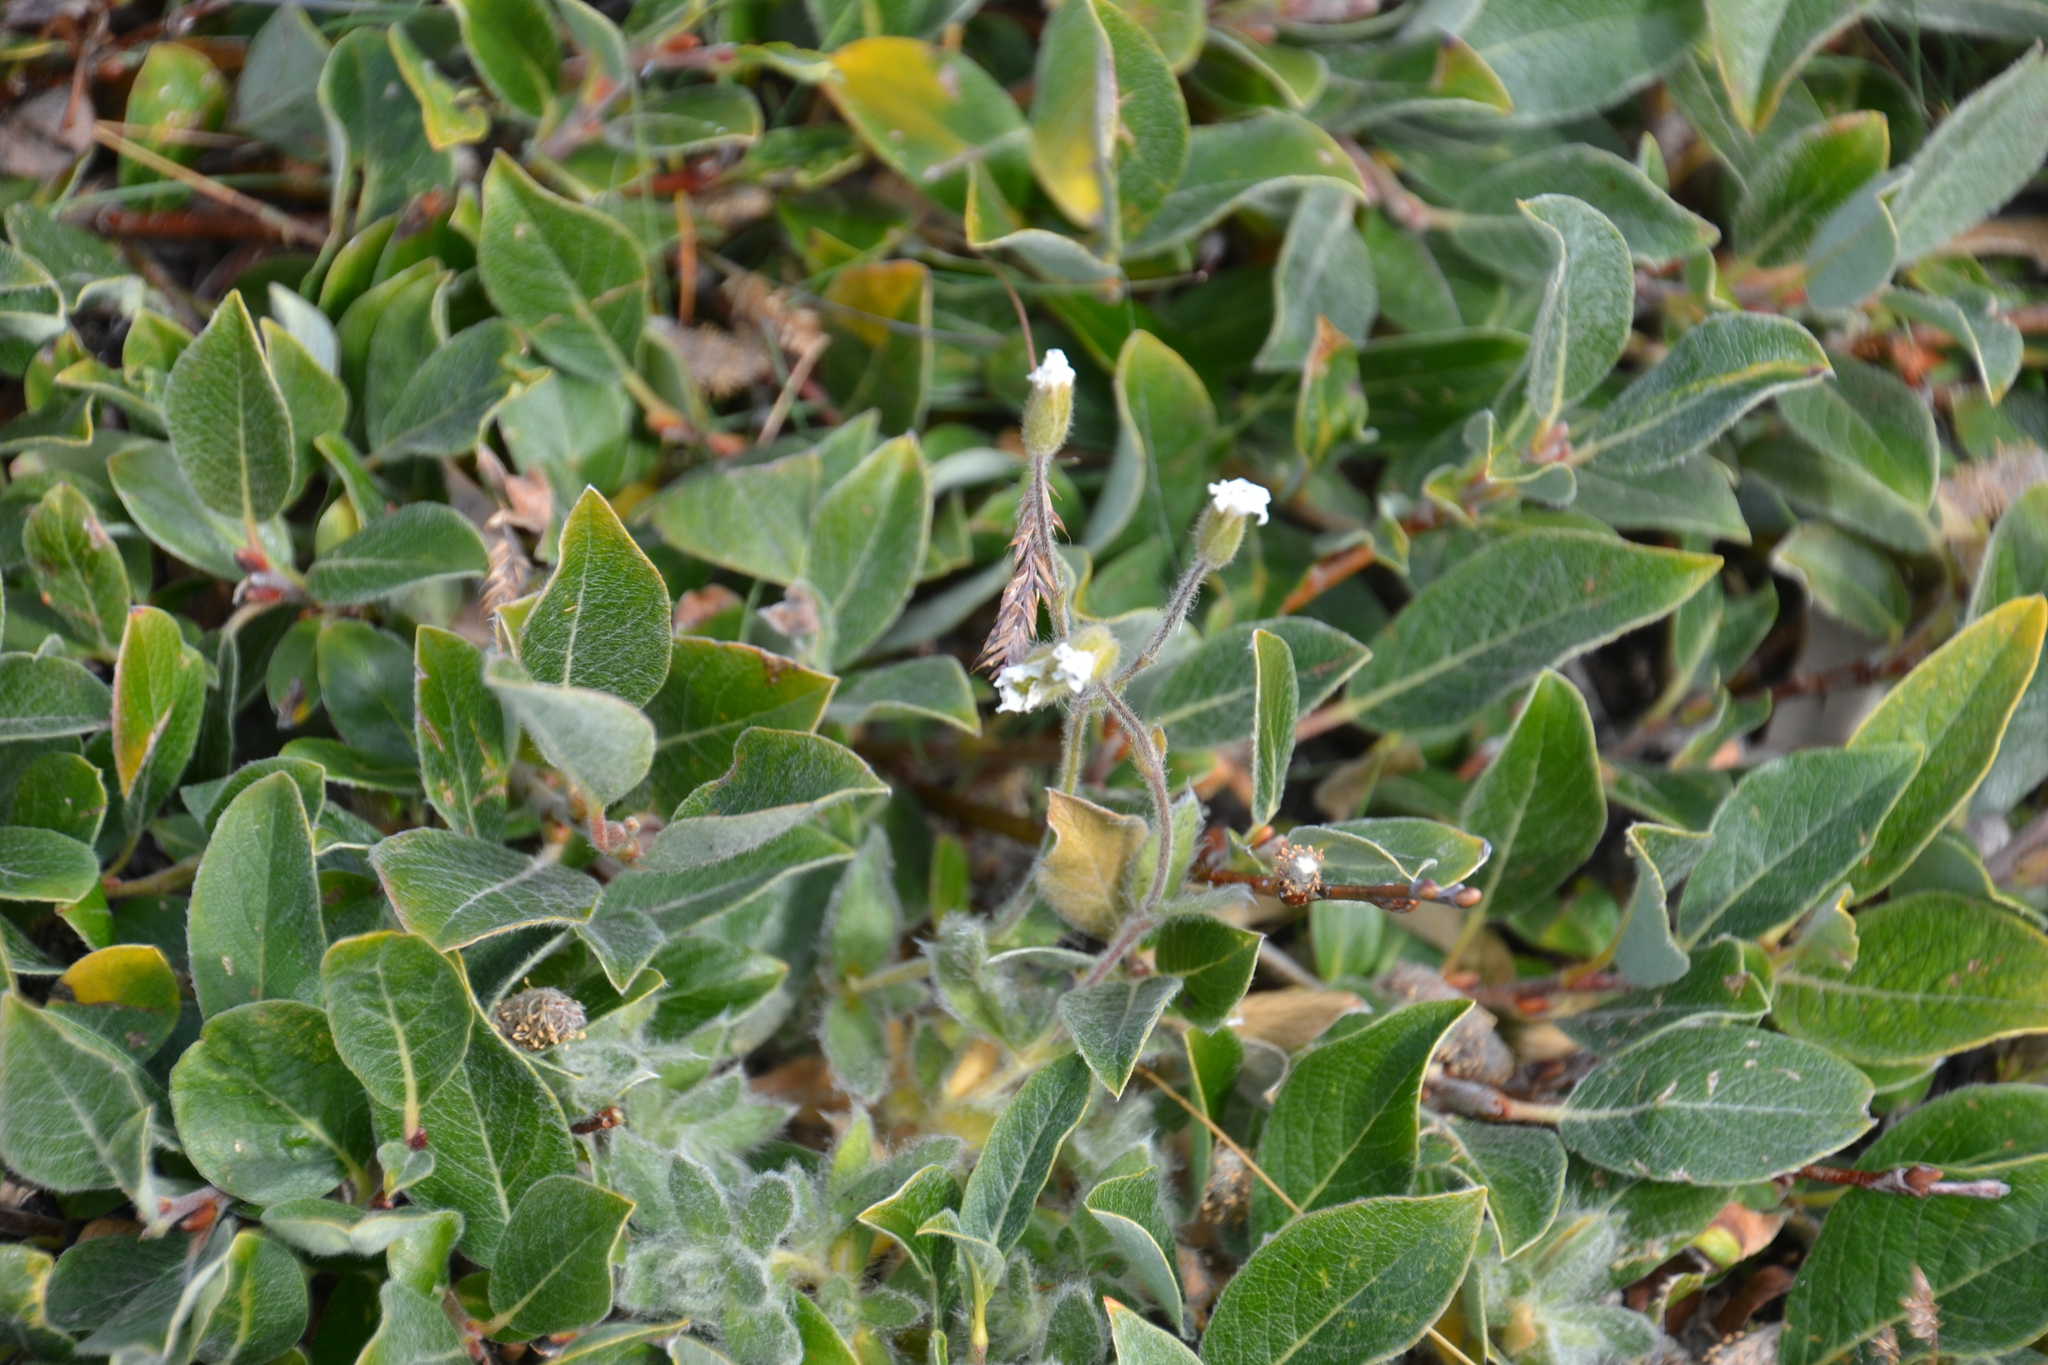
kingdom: Plantae
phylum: Tracheophyta
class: Magnoliopsida
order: Malpighiales
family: Salicaceae
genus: Salix
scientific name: Salix glauca
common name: Glaucous willow
